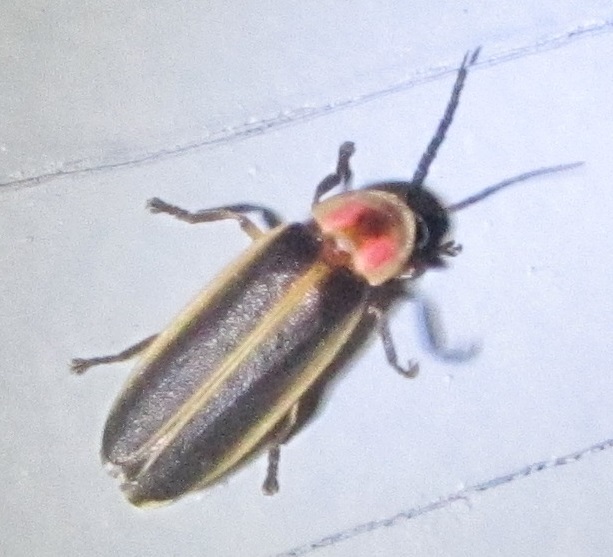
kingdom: Animalia
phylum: Arthropoda
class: Insecta
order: Coleoptera
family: Lampyridae
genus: Photinus
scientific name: Photinus pyralis
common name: Big dipper firefly
